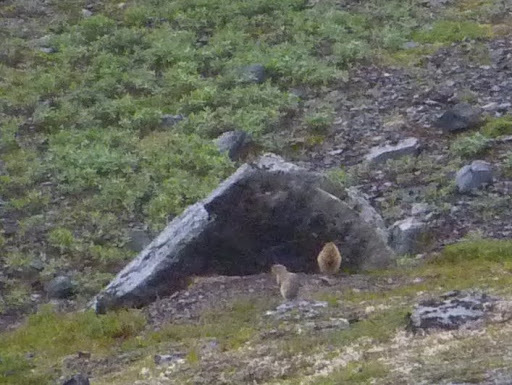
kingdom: Animalia
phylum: Chordata
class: Mammalia
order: Rodentia
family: Sciuridae
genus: Urocitellus
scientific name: Urocitellus parryii
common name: Arctic ground squirrel
